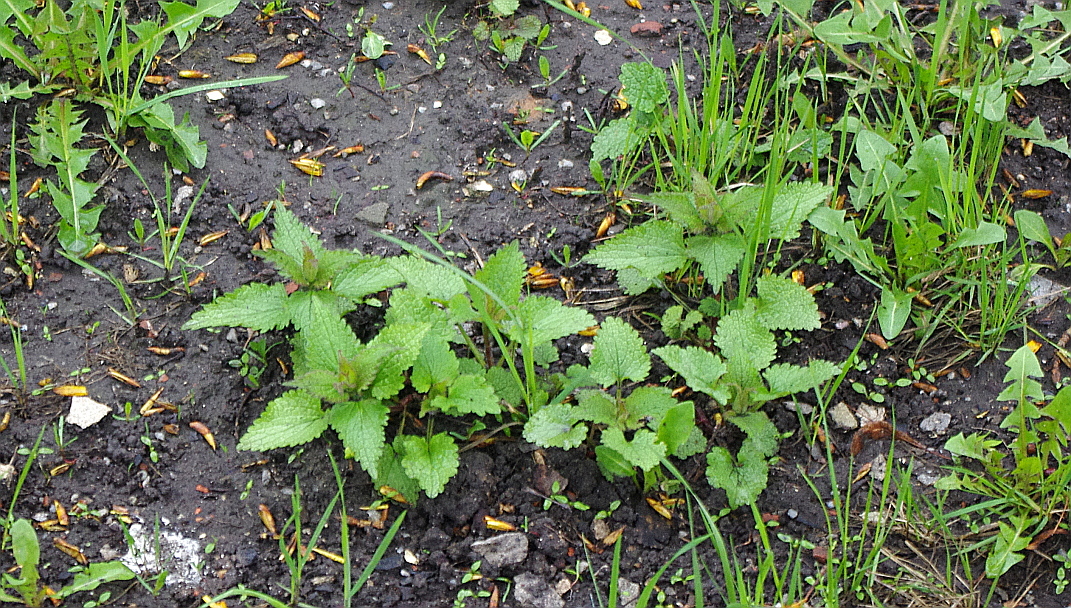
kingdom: Plantae
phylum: Tracheophyta
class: Magnoliopsida
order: Lamiales
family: Lamiaceae
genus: Lamium
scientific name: Lamium album
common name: White dead-nettle
